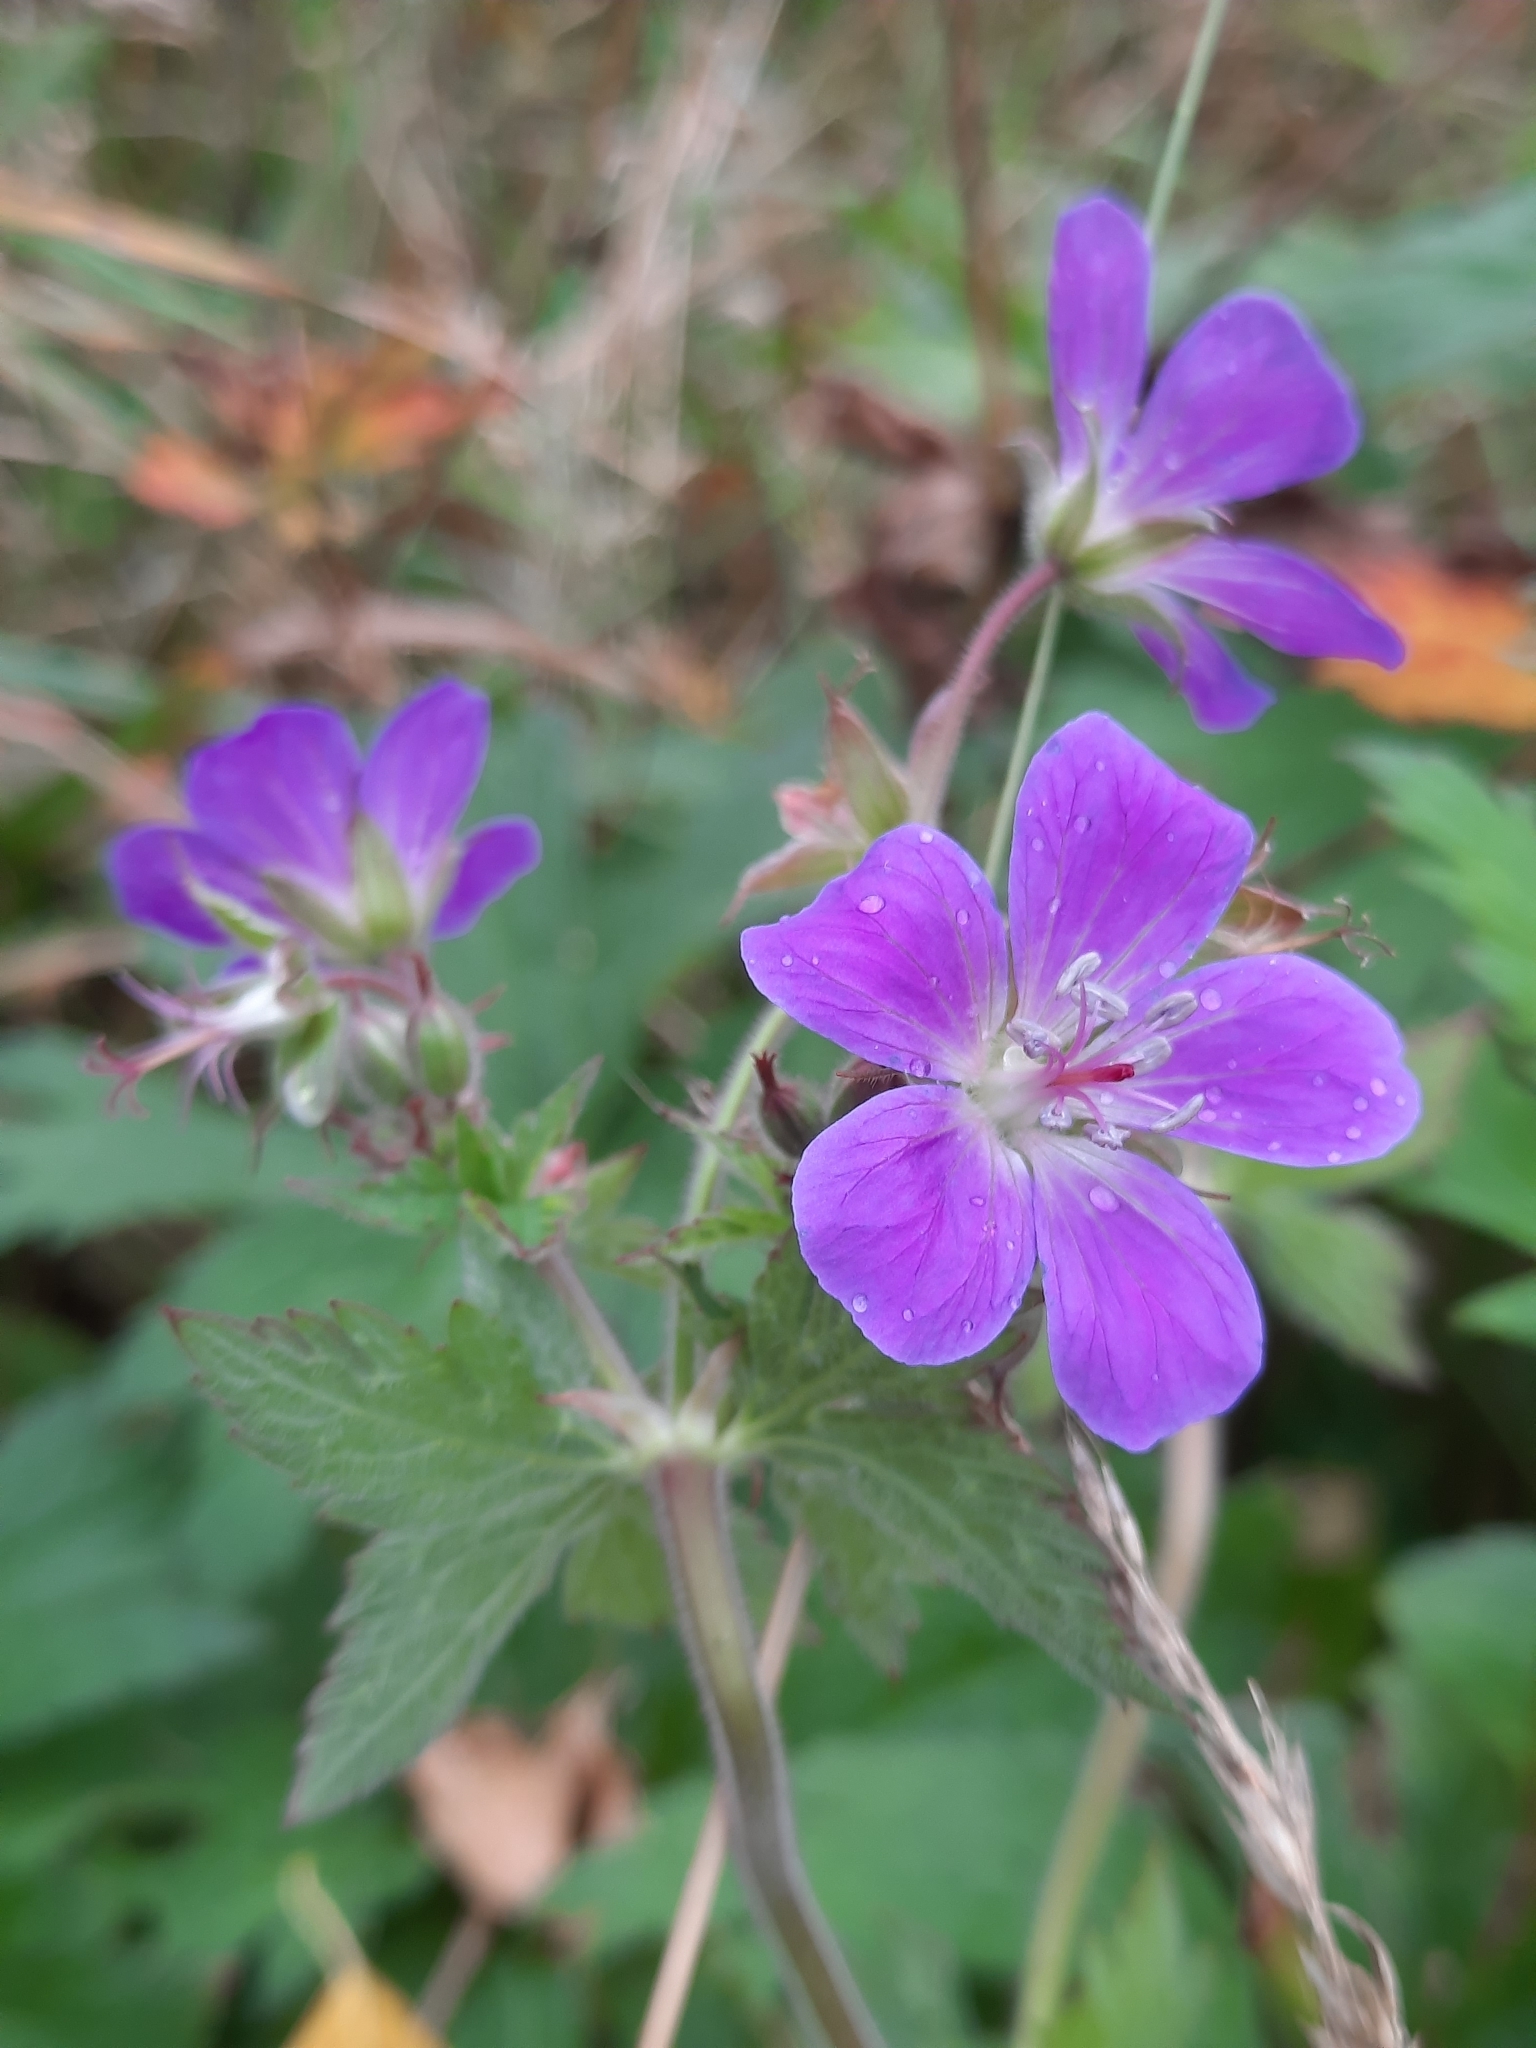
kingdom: Plantae
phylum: Tracheophyta
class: Magnoliopsida
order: Geraniales
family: Geraniaceae
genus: Geranium
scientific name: Geranium sylvaticum
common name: Wood crane's-bill
